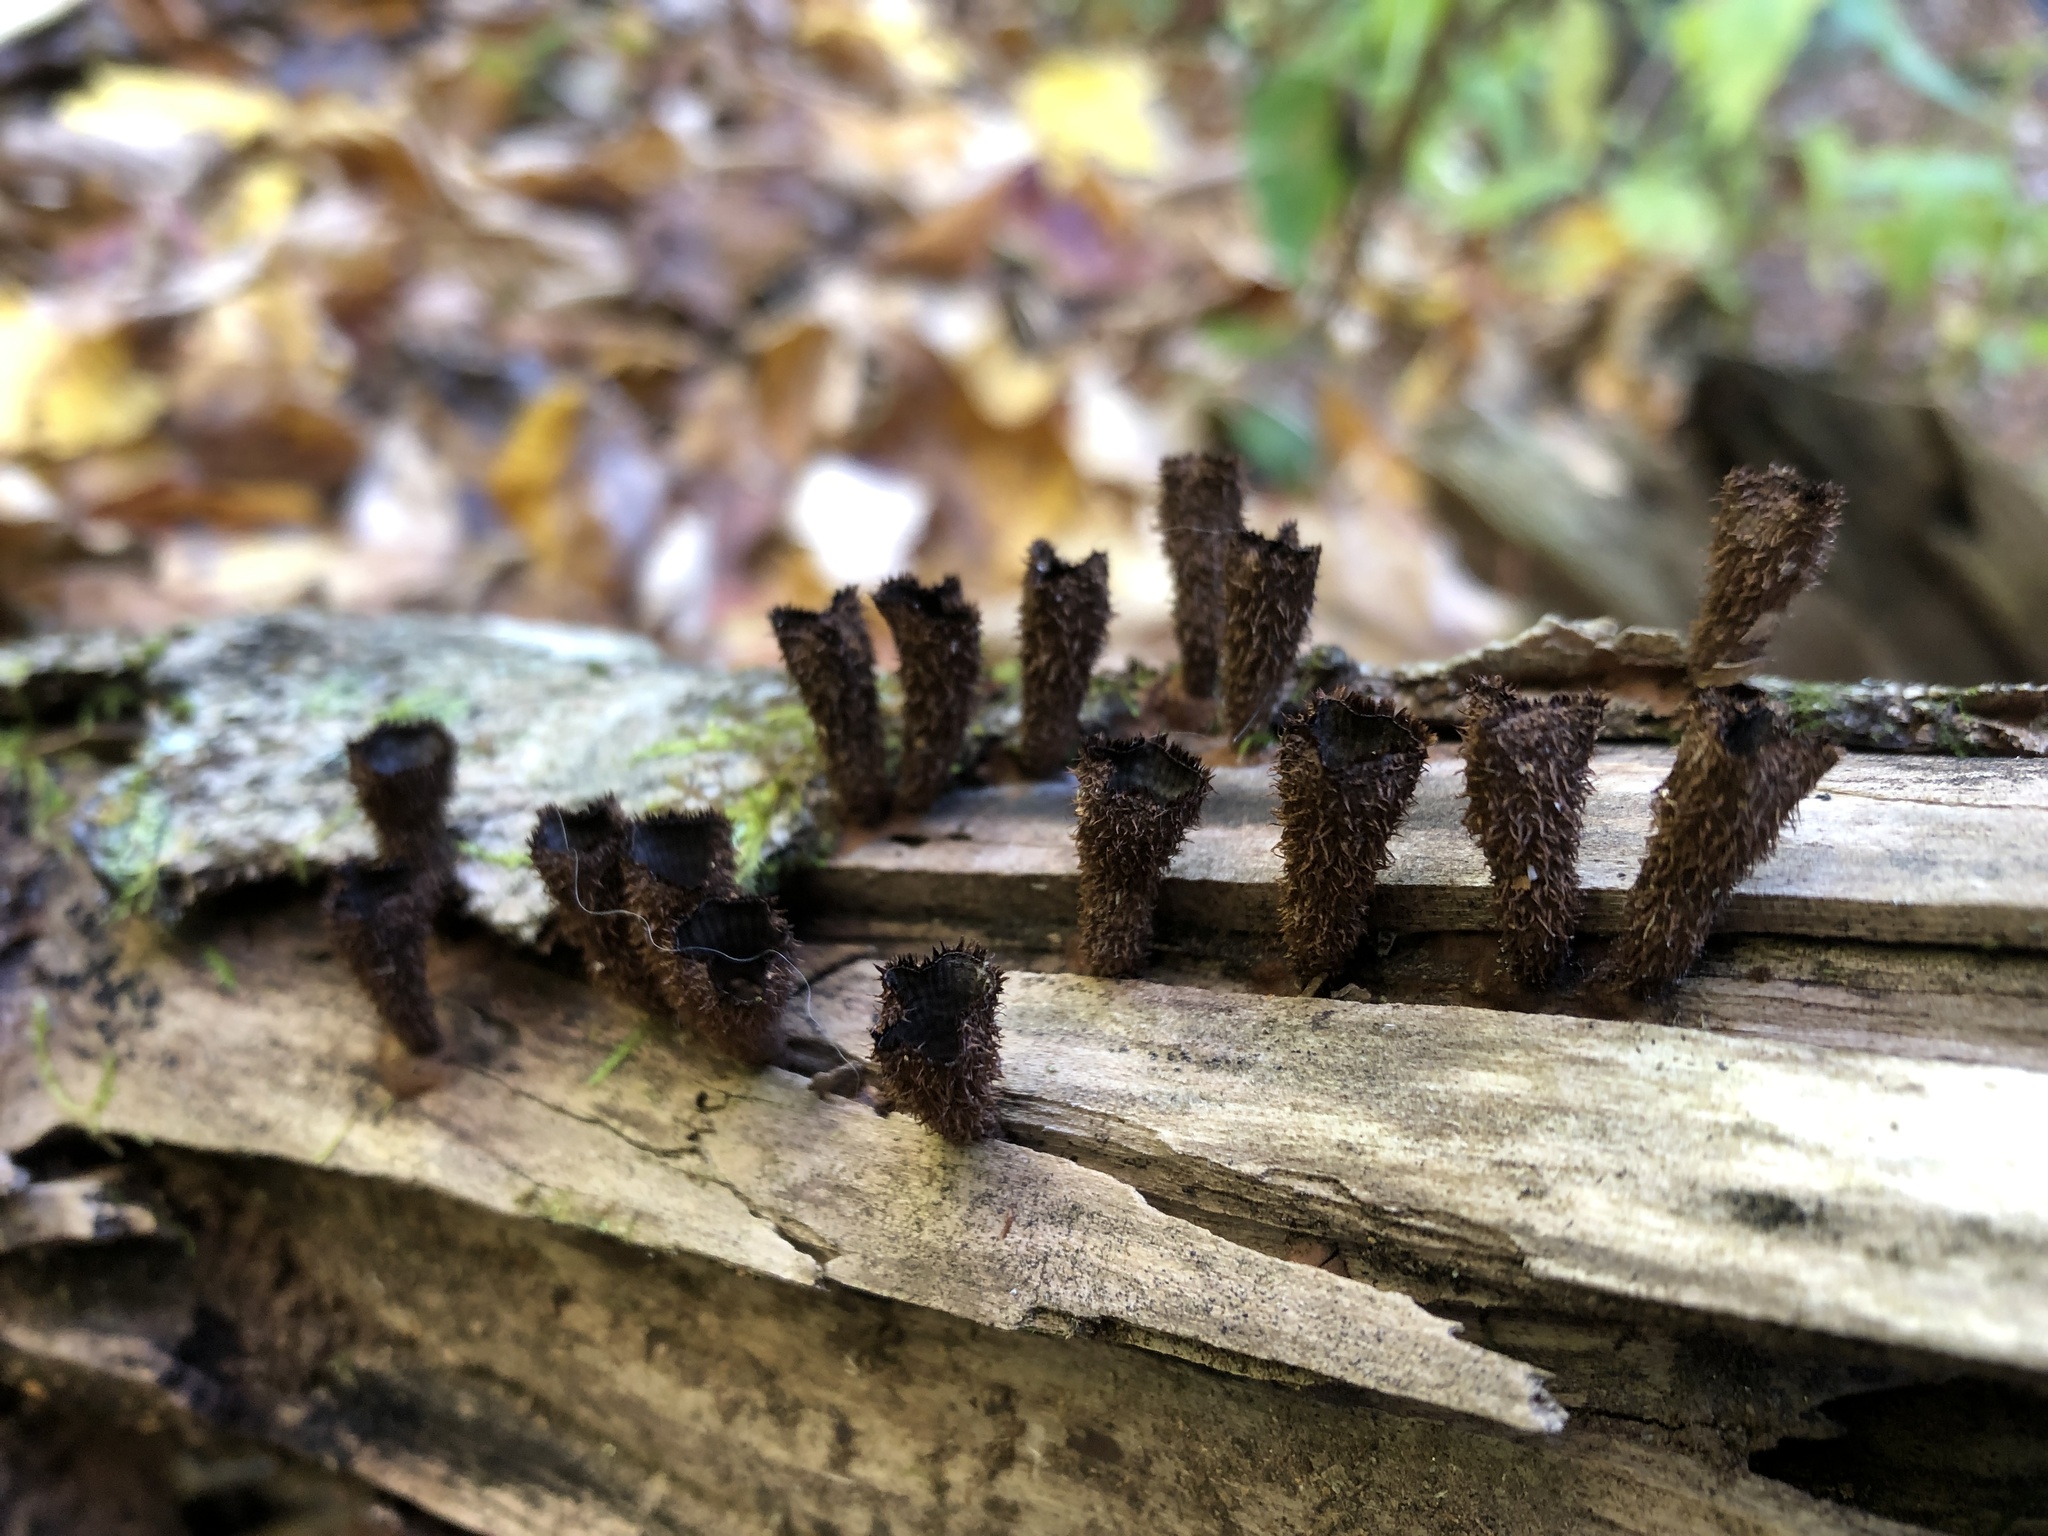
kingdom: Fungi
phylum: Basidiomycota
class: Agaricomycetes
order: Agaricales
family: Agaricaceae
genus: Cyathus
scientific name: Cyathus striatus
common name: Fluted bird's nest
